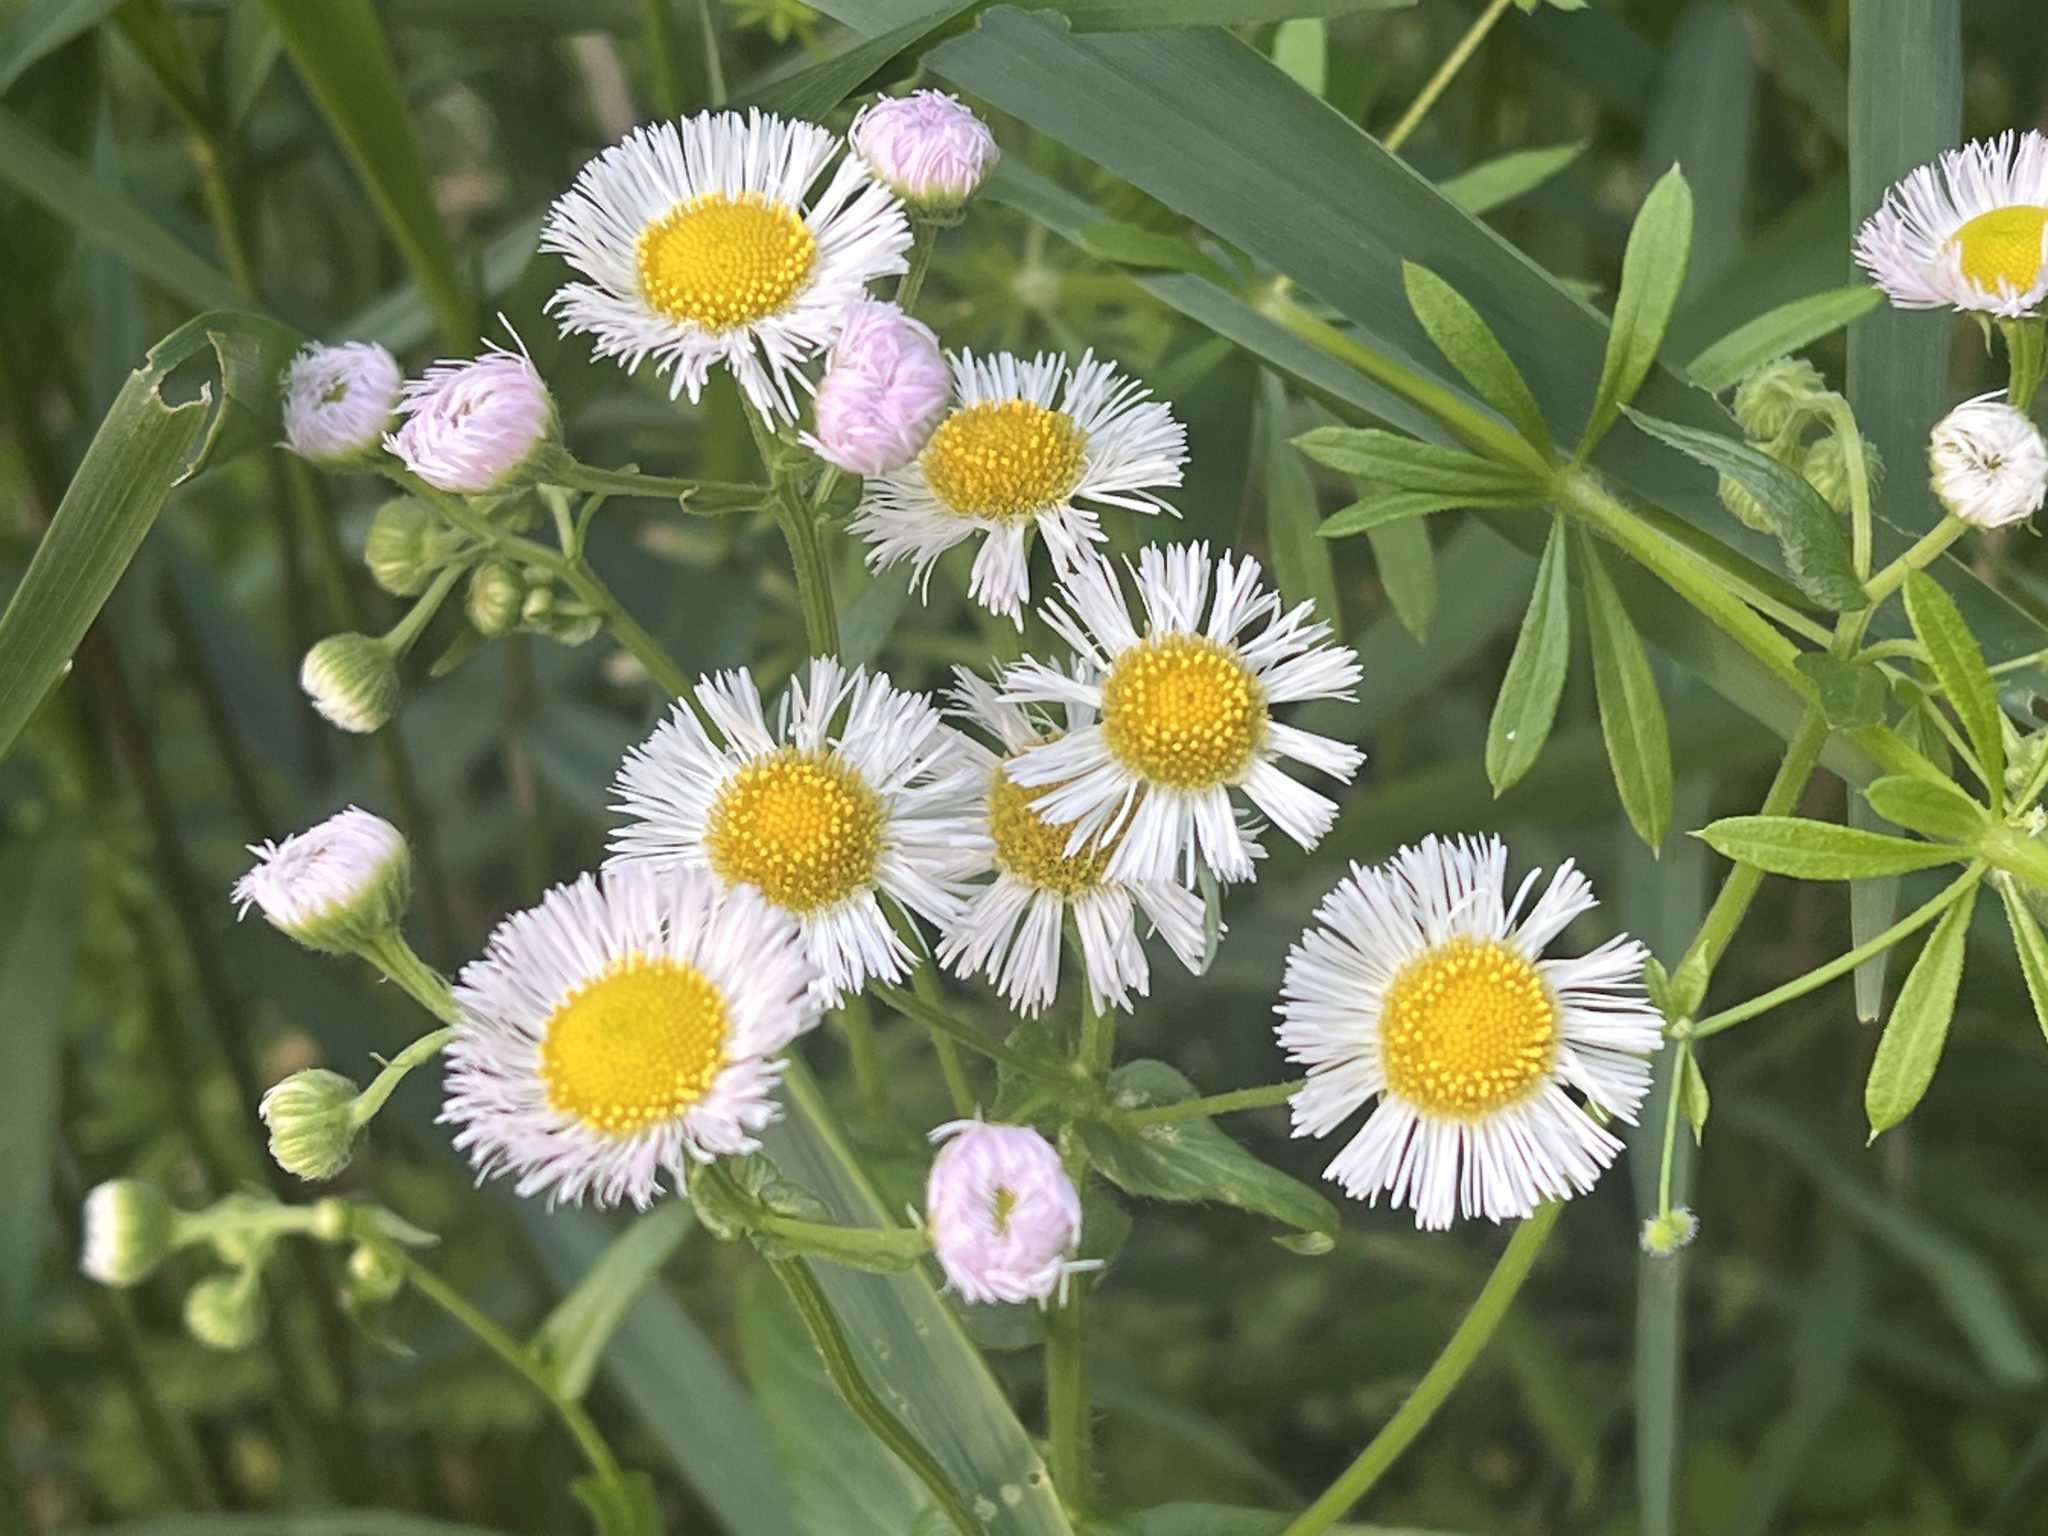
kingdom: Plantae
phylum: Tracheophyta
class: Magnoliopsida
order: Asterales
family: Asteraceae
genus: Erigeron
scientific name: Erigeron philadelphicus
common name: Robin's-plantain
